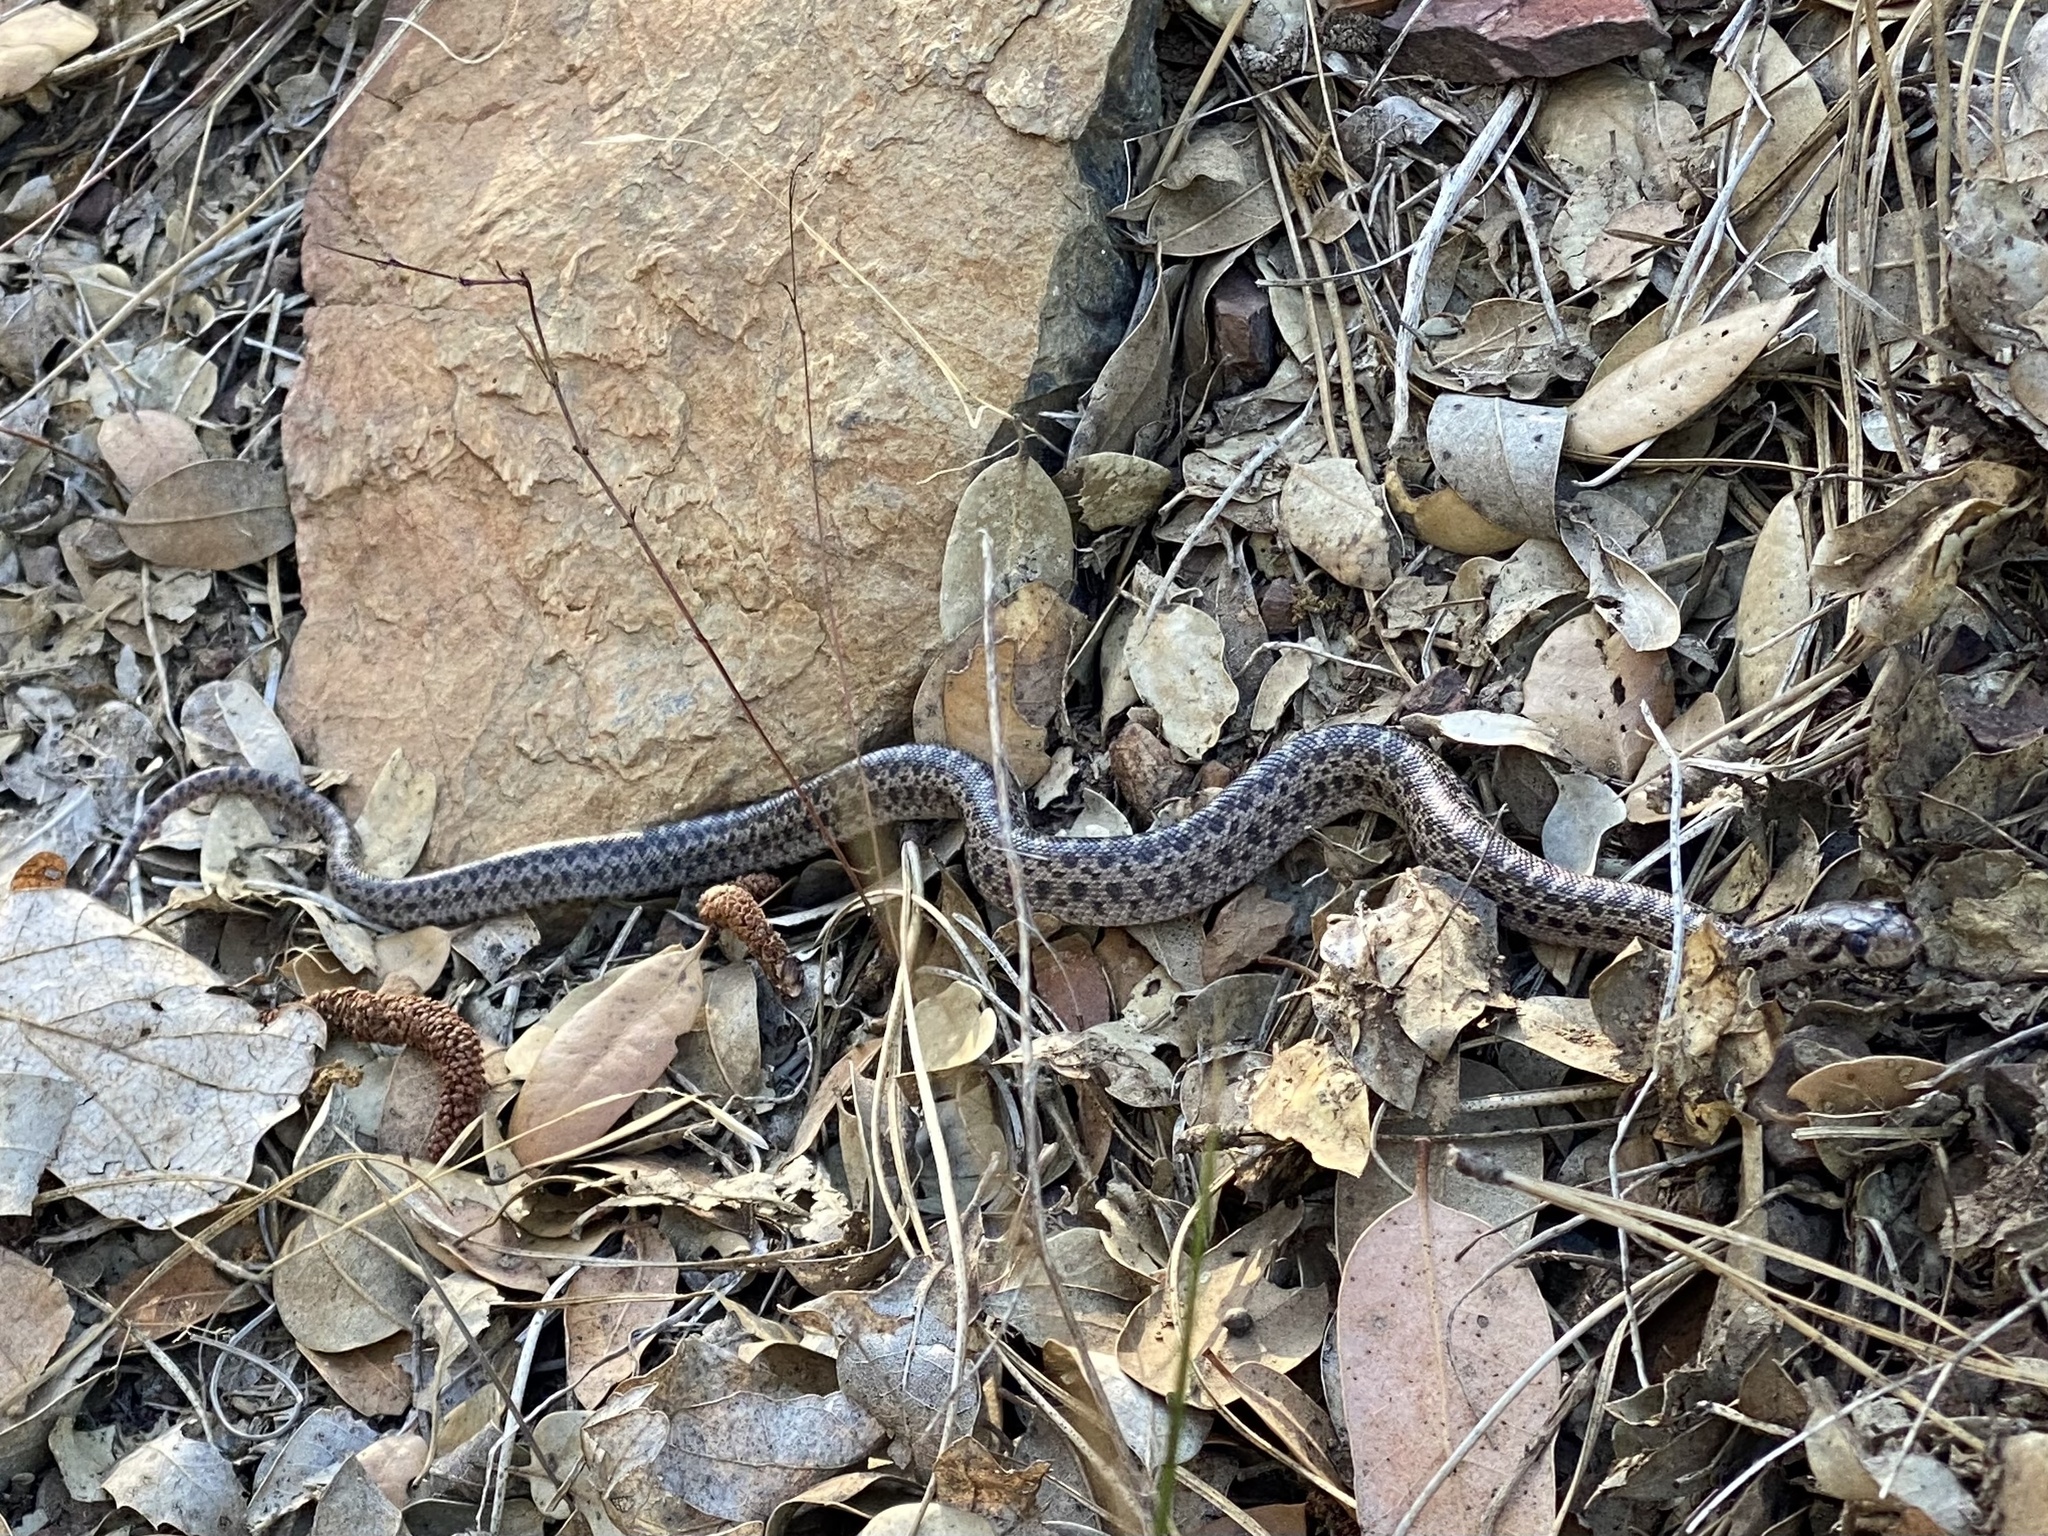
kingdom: Animalia
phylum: Chordata
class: Squamata
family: Colubridae
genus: Pituophis
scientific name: Pituophis catenifer
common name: Gopher snake
